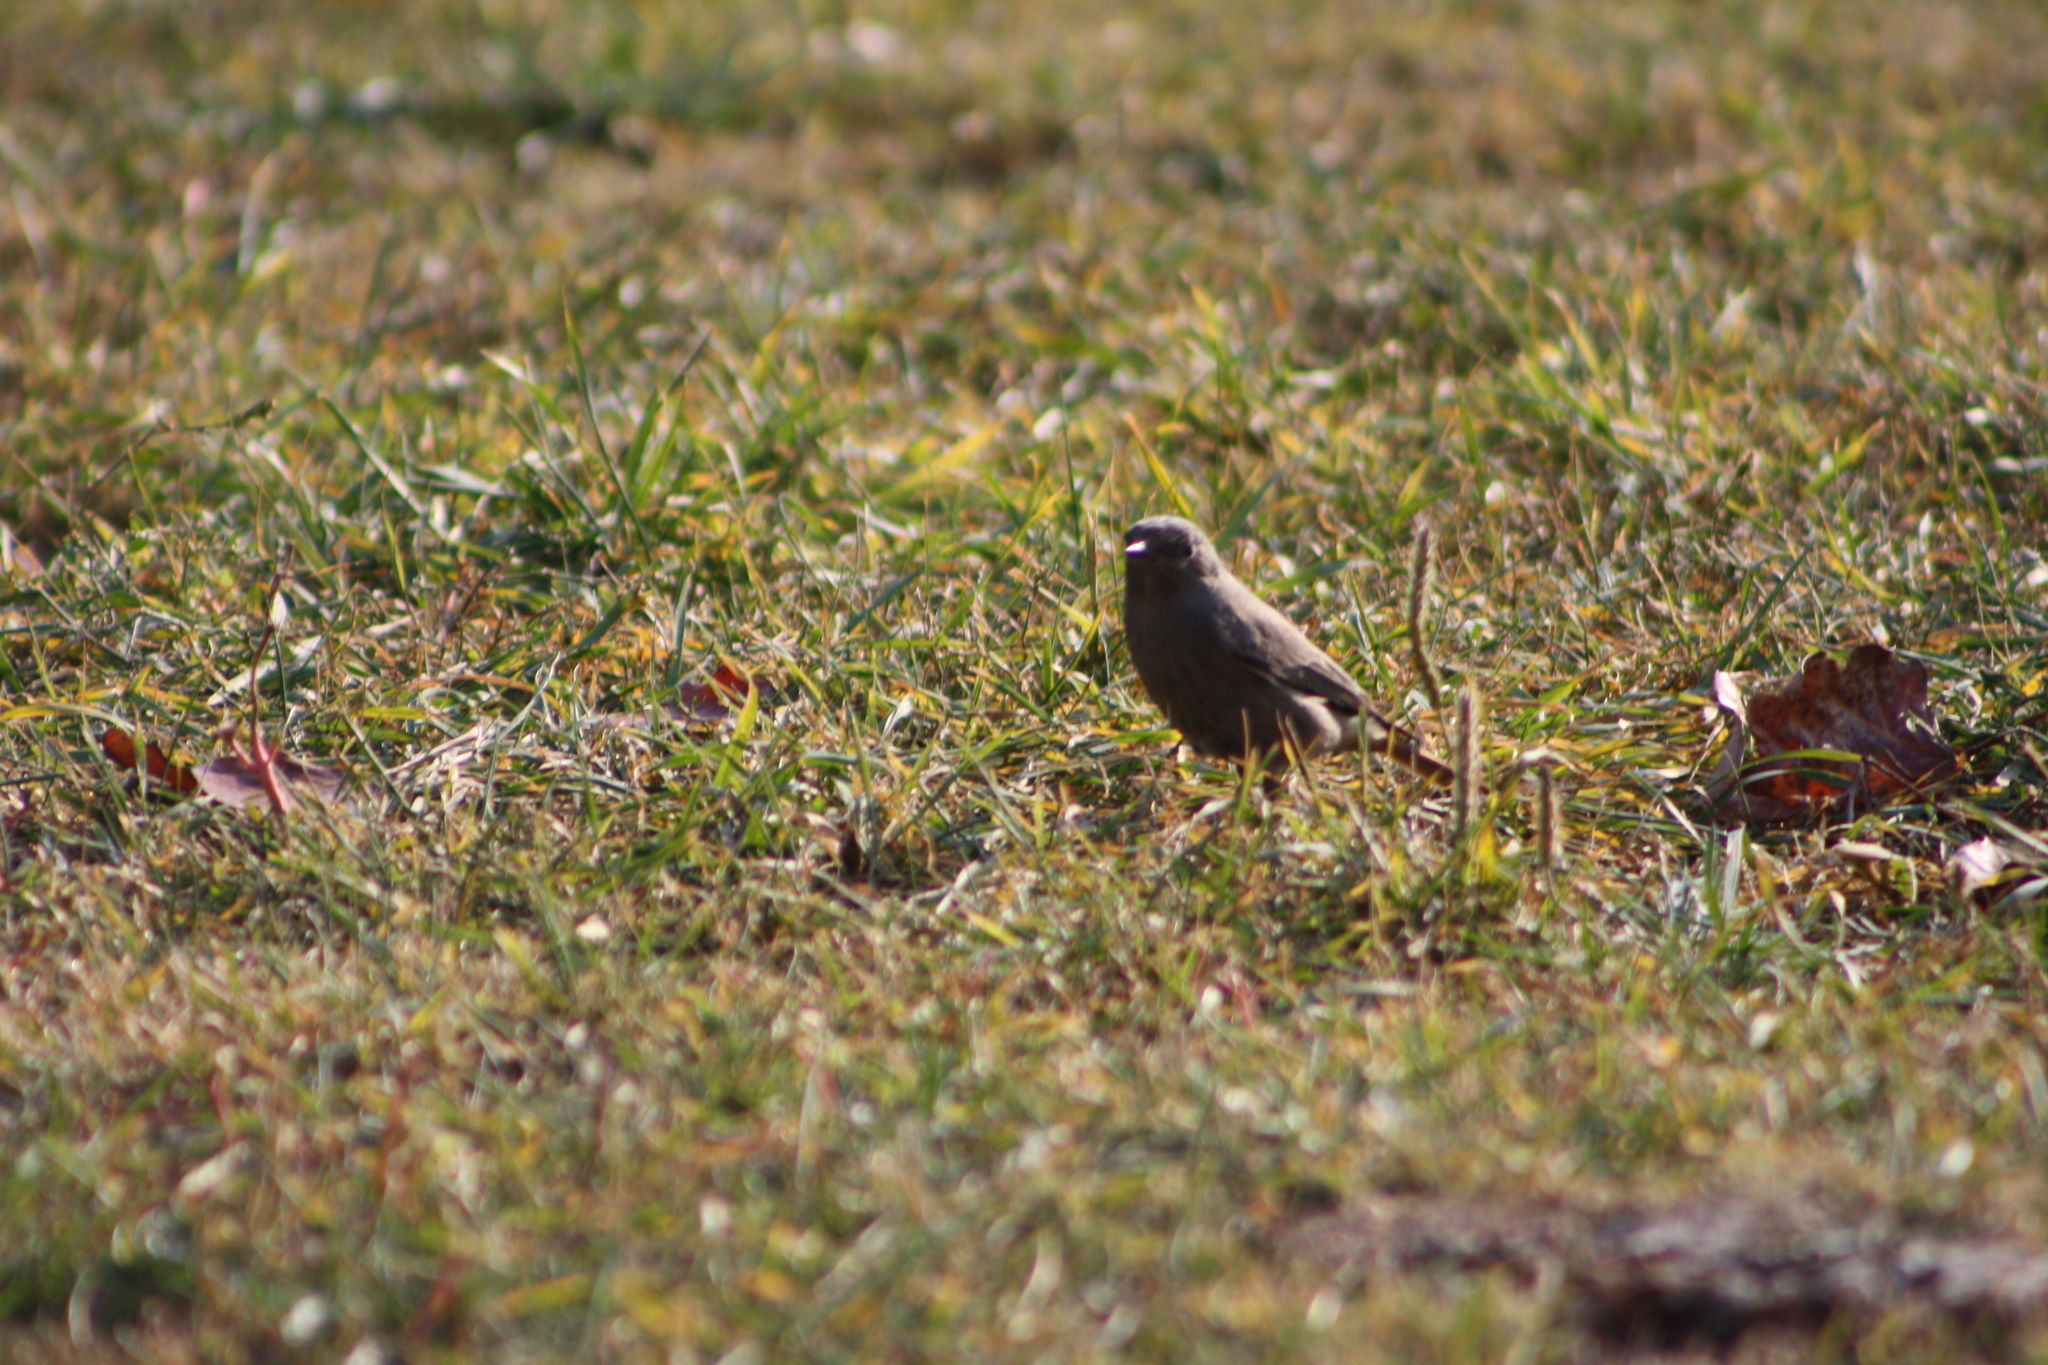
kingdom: Animalia
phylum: Chordata
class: Aves
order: Passeriformes
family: Muscicapidae
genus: Phoenicurus
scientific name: Phoenicurus ochruros
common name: Black redstart
